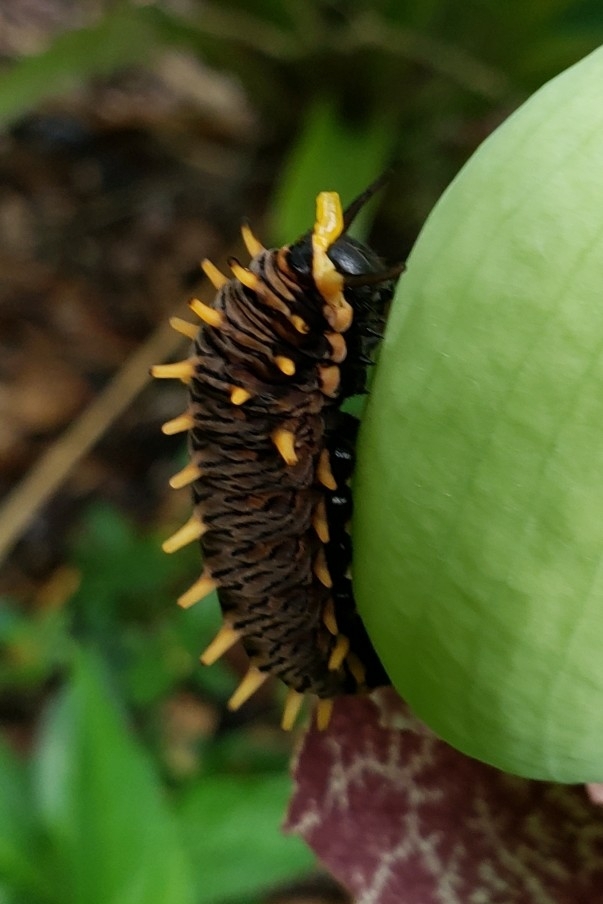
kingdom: Animalia
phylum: Arthropoda
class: Insecta
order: Lepidoptera
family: Papilionidae
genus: Battus
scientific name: Battus polydamas
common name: Polydamas swallowtail
